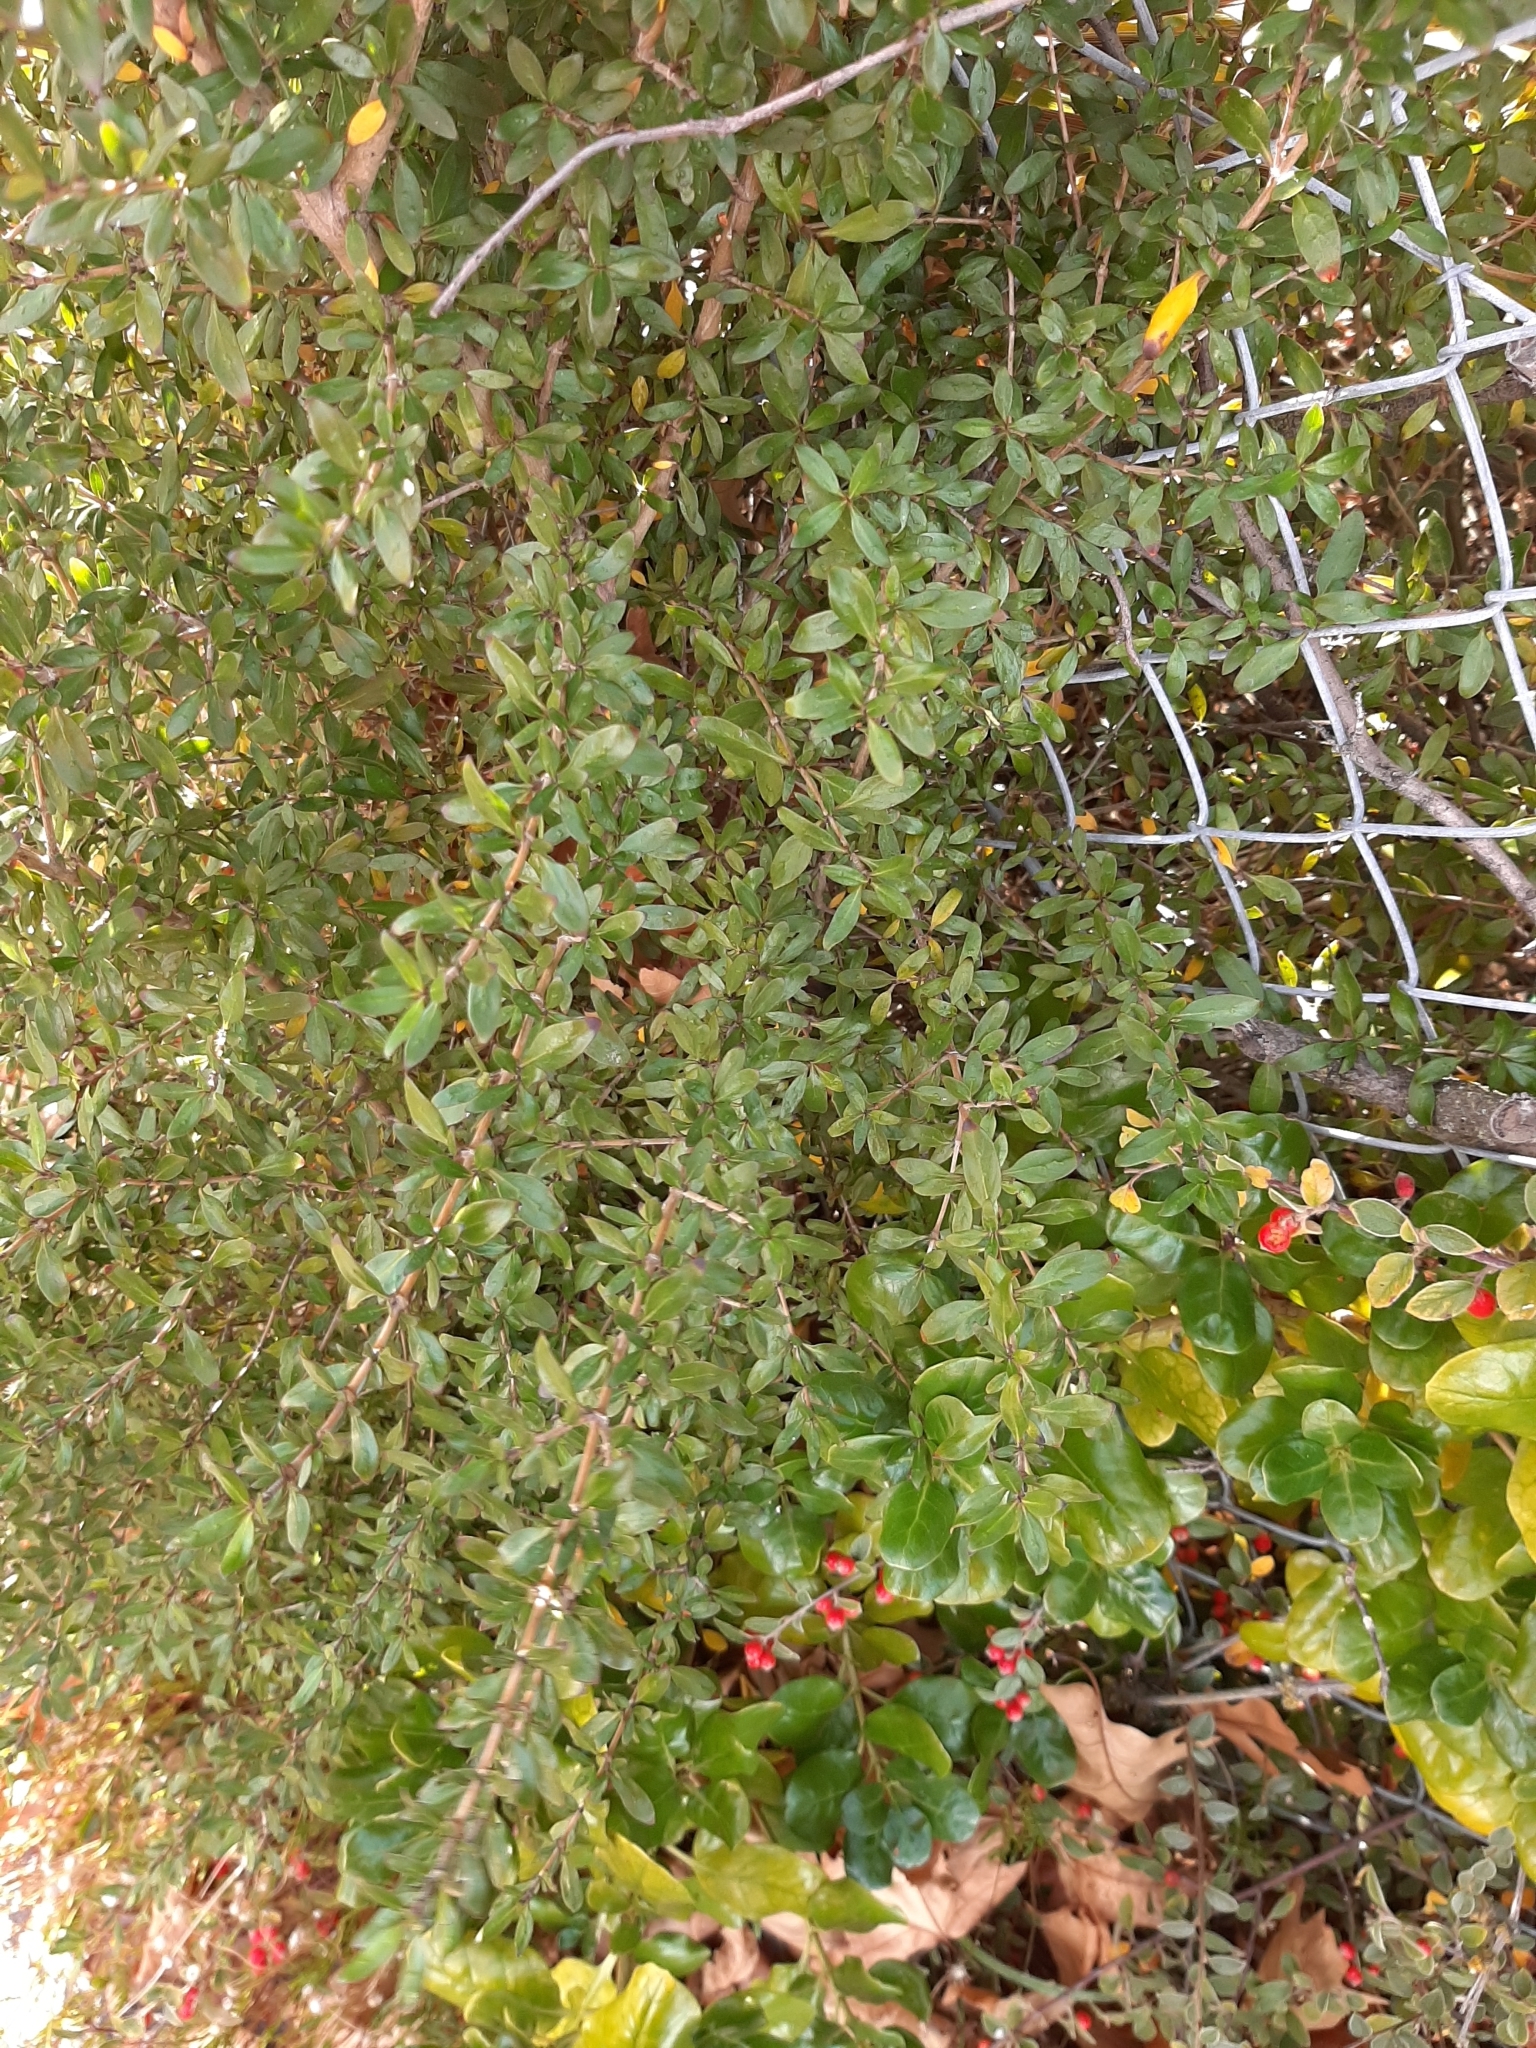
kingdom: Plantae
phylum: Tracheophyta
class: Magnoliopsida
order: Gentianales
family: Rubiaceae
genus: Coprosma
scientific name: Coprosma cunninghamii
